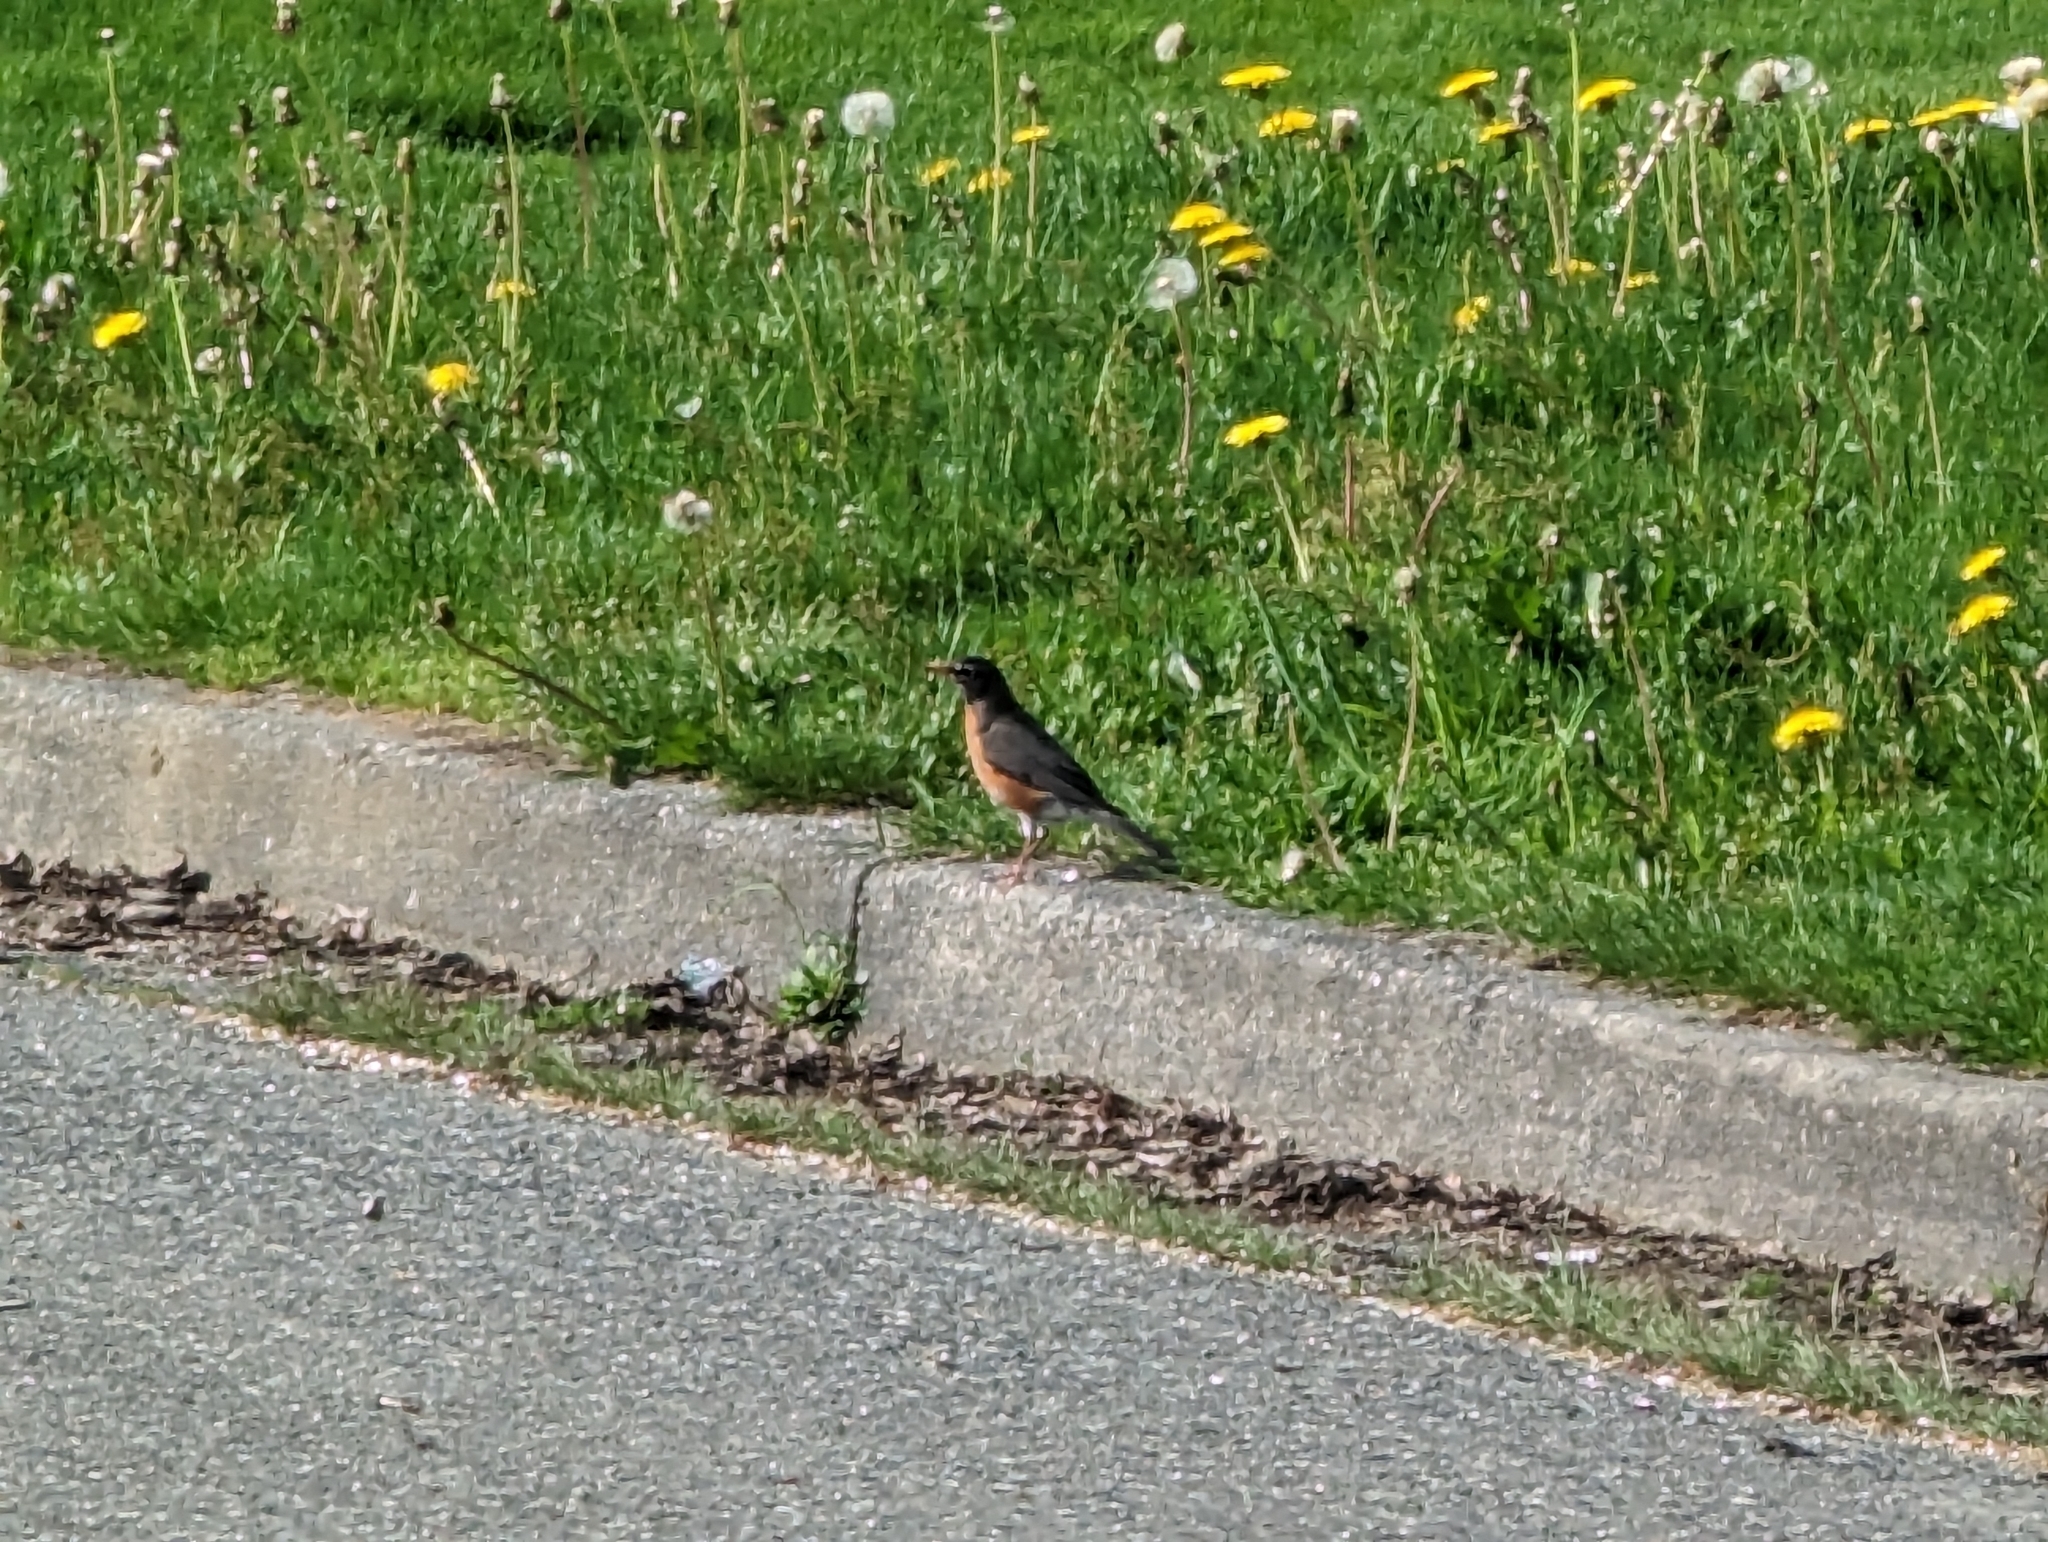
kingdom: Animalia
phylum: Chordata
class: Aves
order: Passeriformes
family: Turdidae
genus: Turdus
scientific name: Turdus migratorius
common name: American robin
